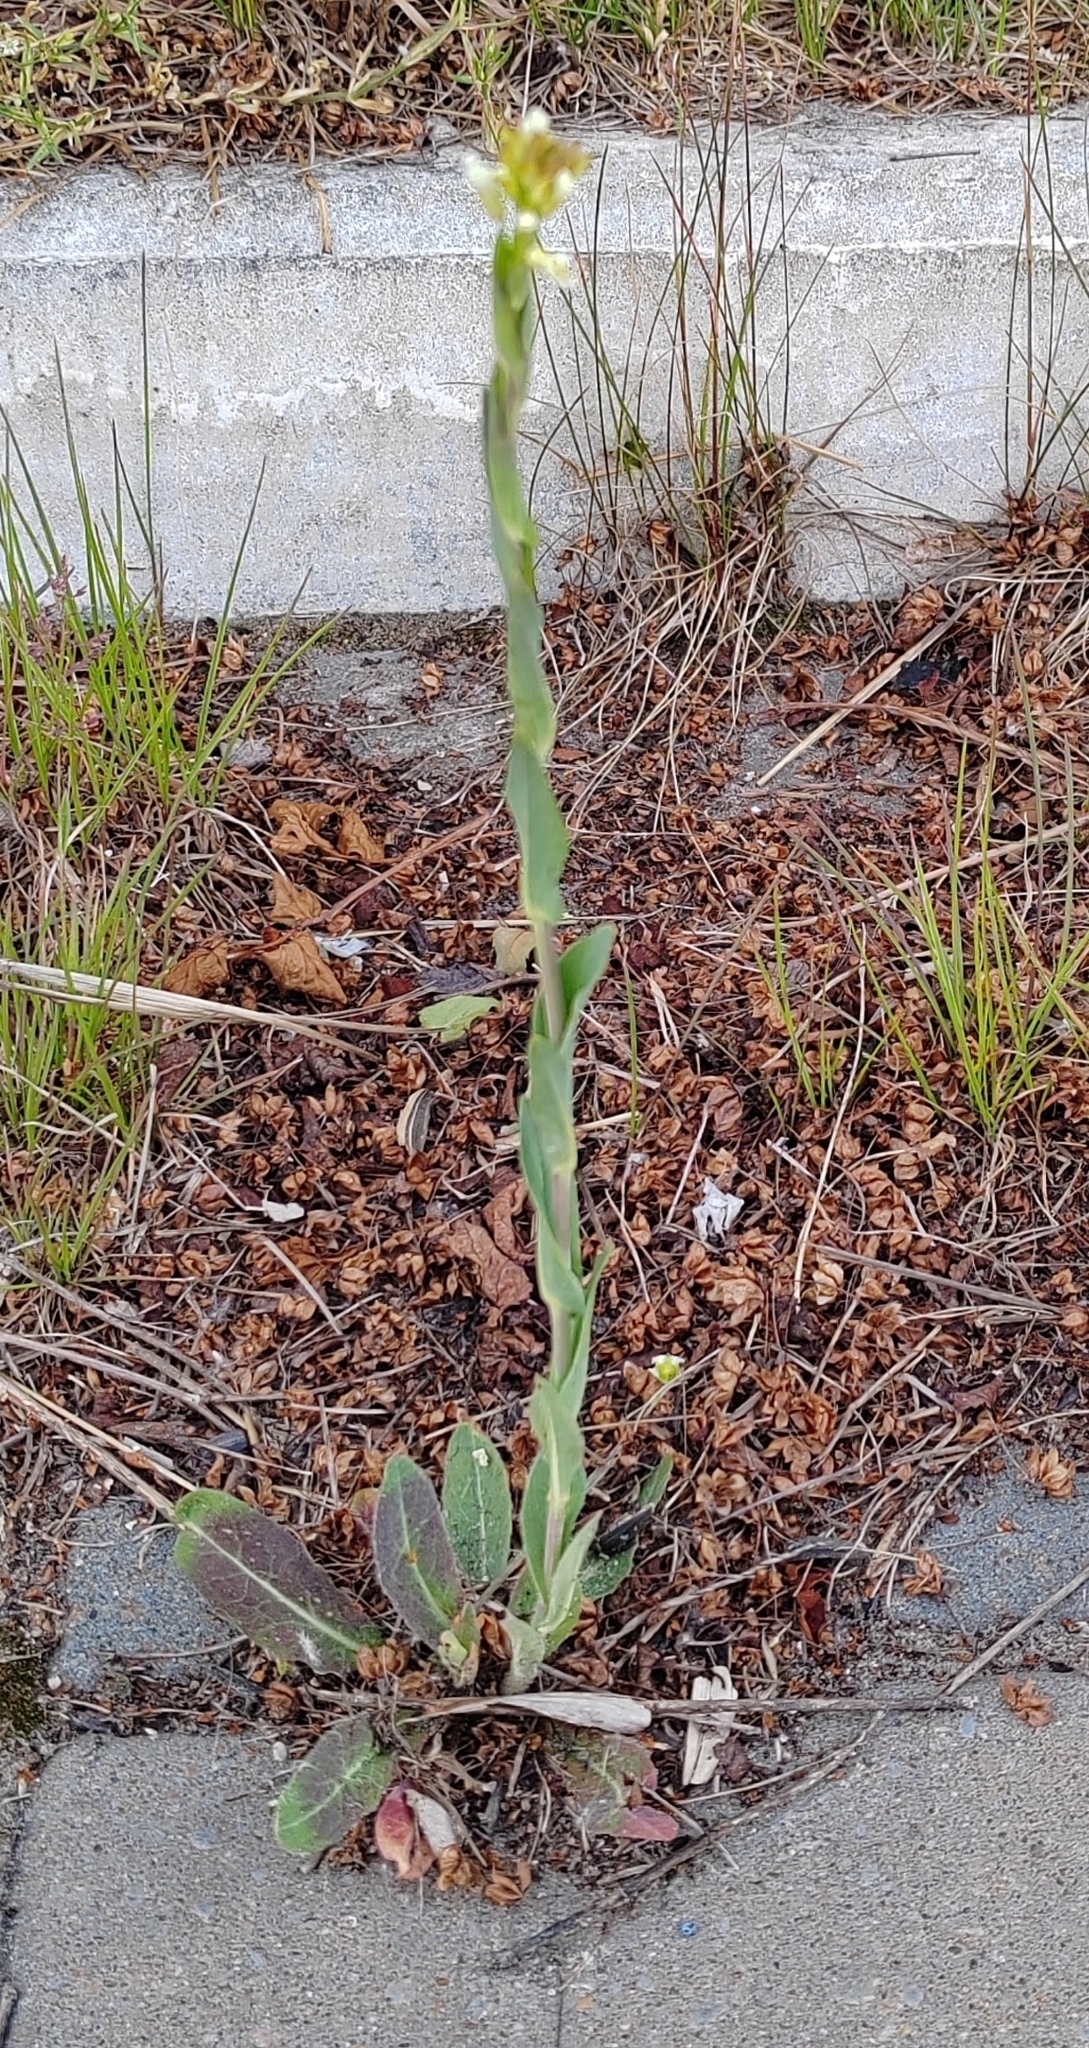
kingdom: Plantae
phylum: Tracheophyta
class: Magnoliopsida
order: Brassicales
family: Brassicaceae
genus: Turritis
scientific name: Turritis glabra
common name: Tower rockcress
